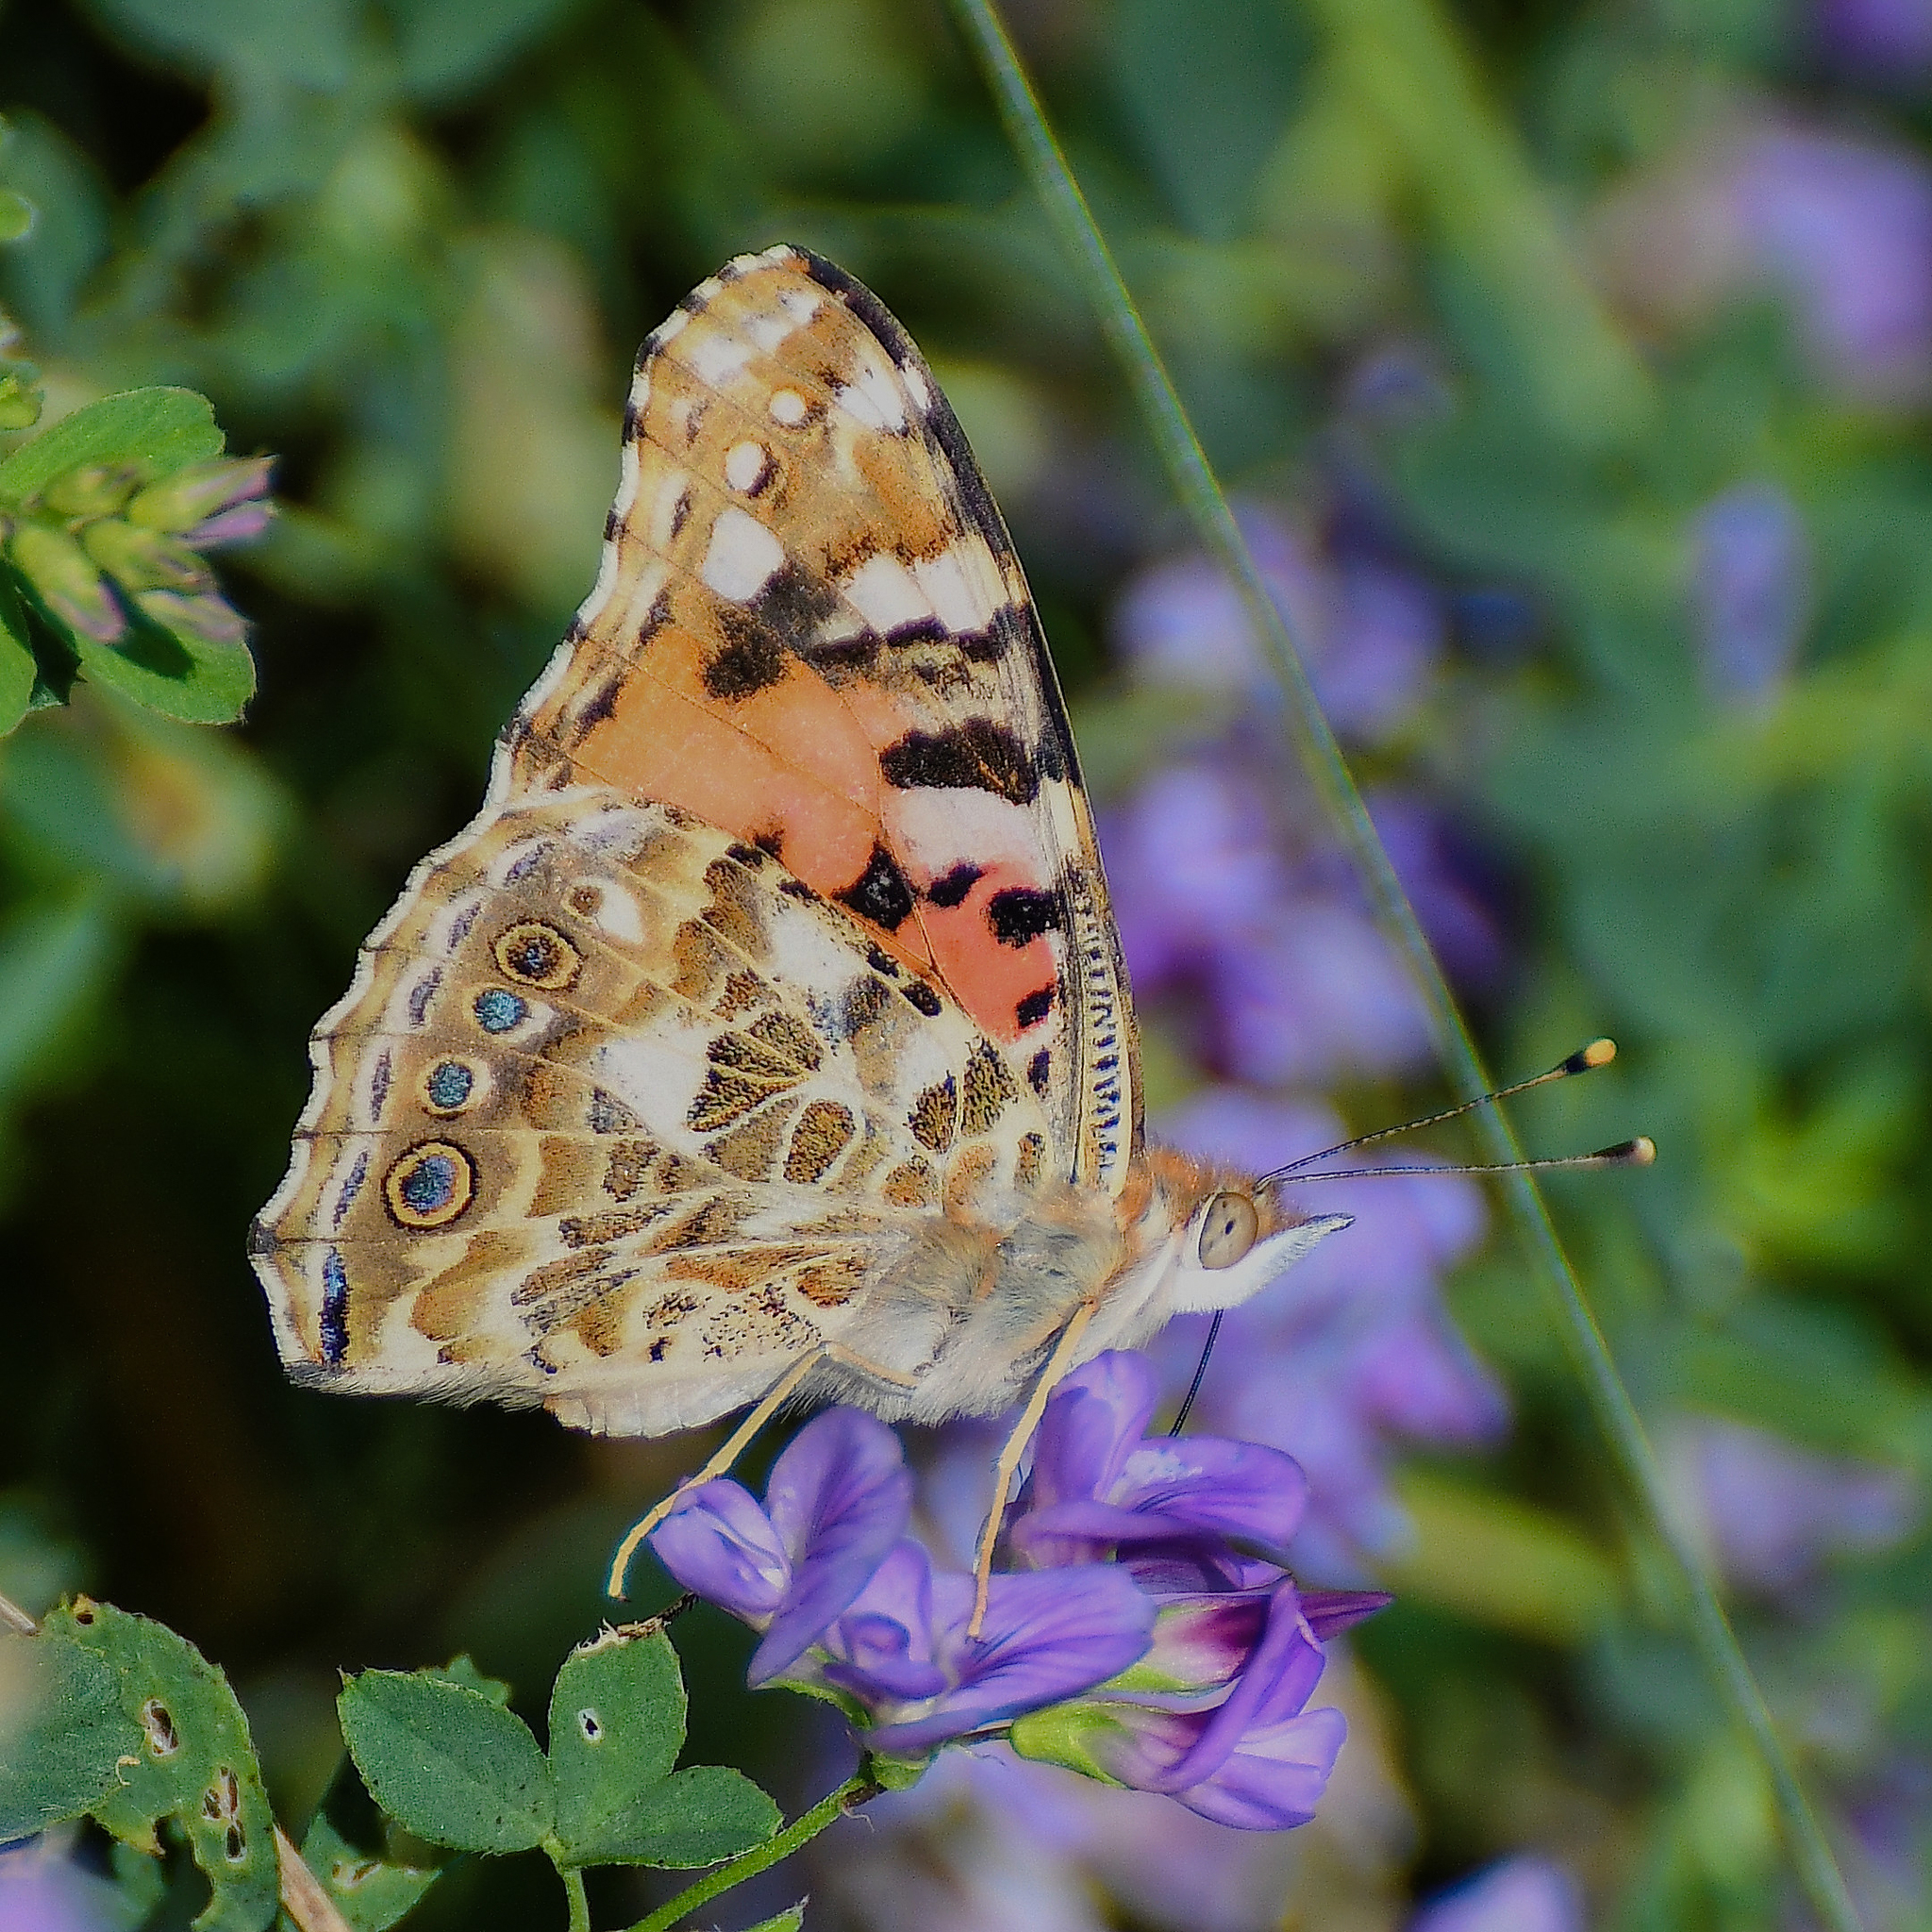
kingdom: Animalia
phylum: Arthropoda
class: Insecta
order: Lepidoptera
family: Nymphalidae
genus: Vanessa
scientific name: Vanessa cardui
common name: Painted lady
